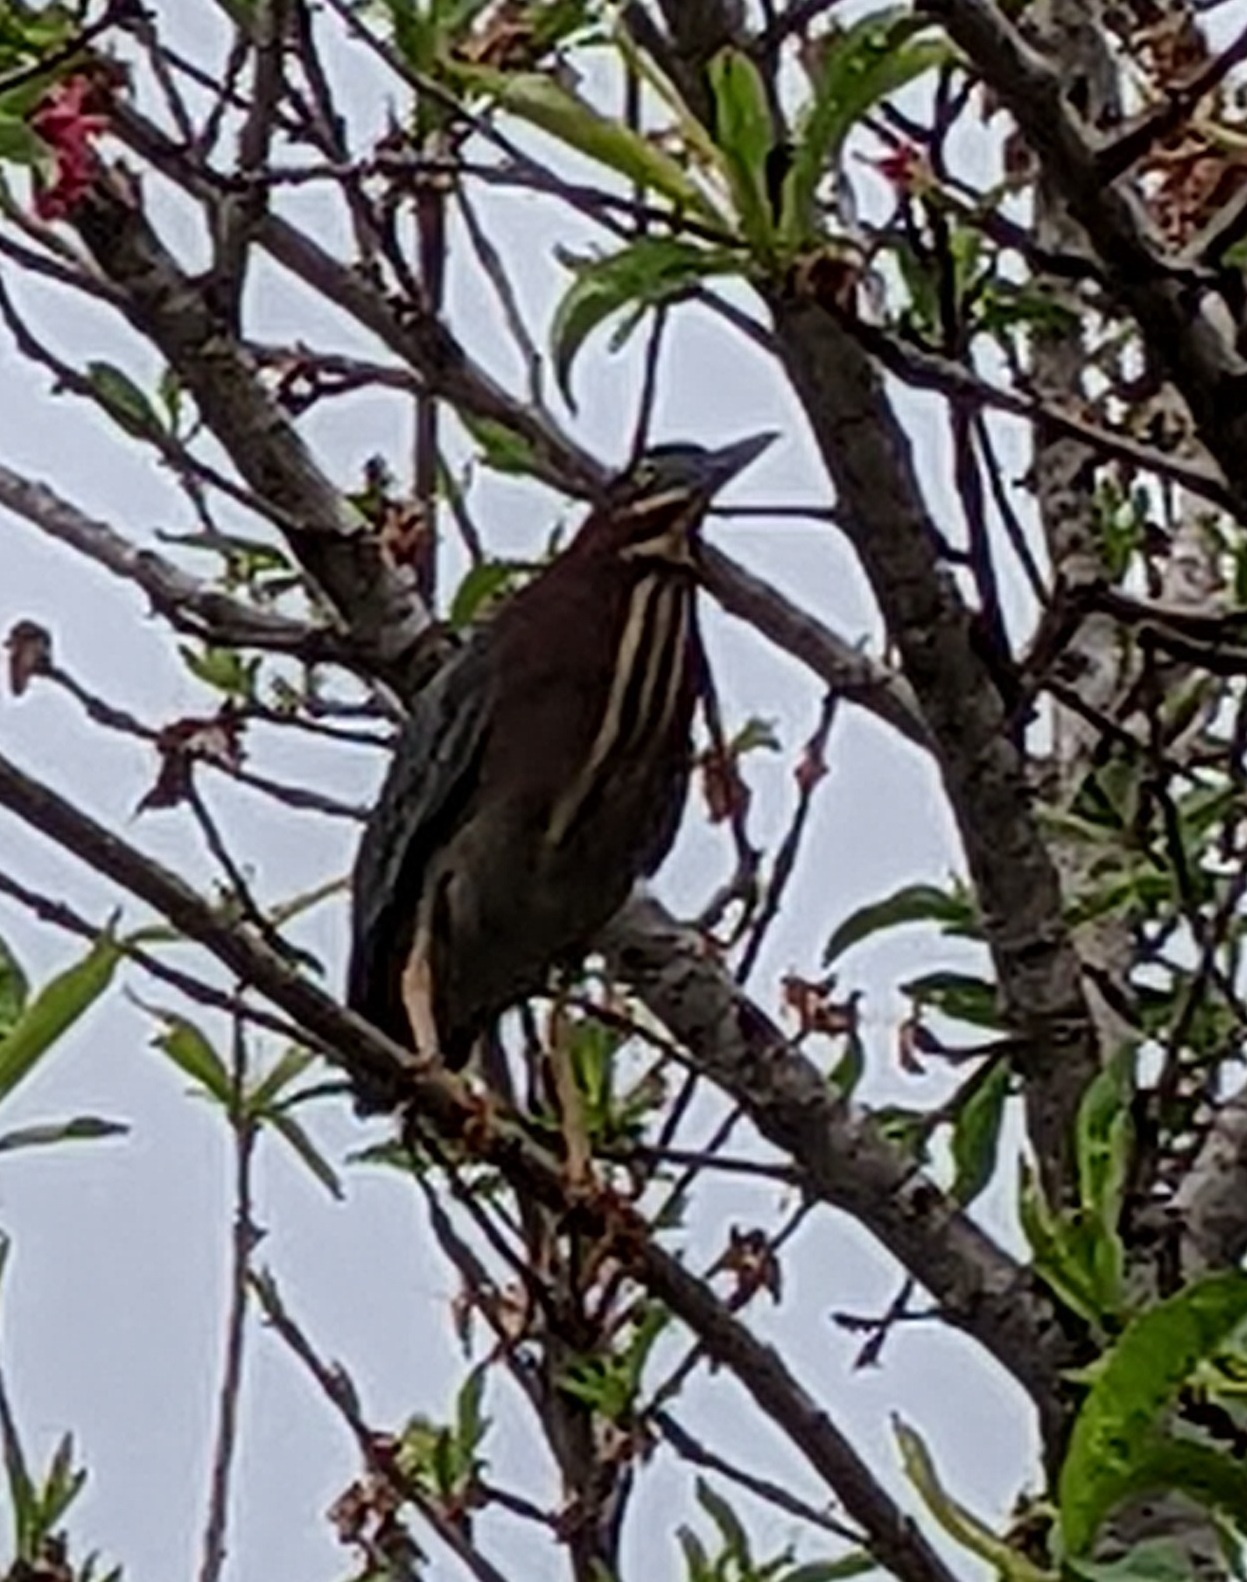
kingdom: Animalia
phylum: Chordata
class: Aves
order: Pelecaniformes
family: Ardeidae
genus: Butorides
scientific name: Butorides virescens
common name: Green heron
